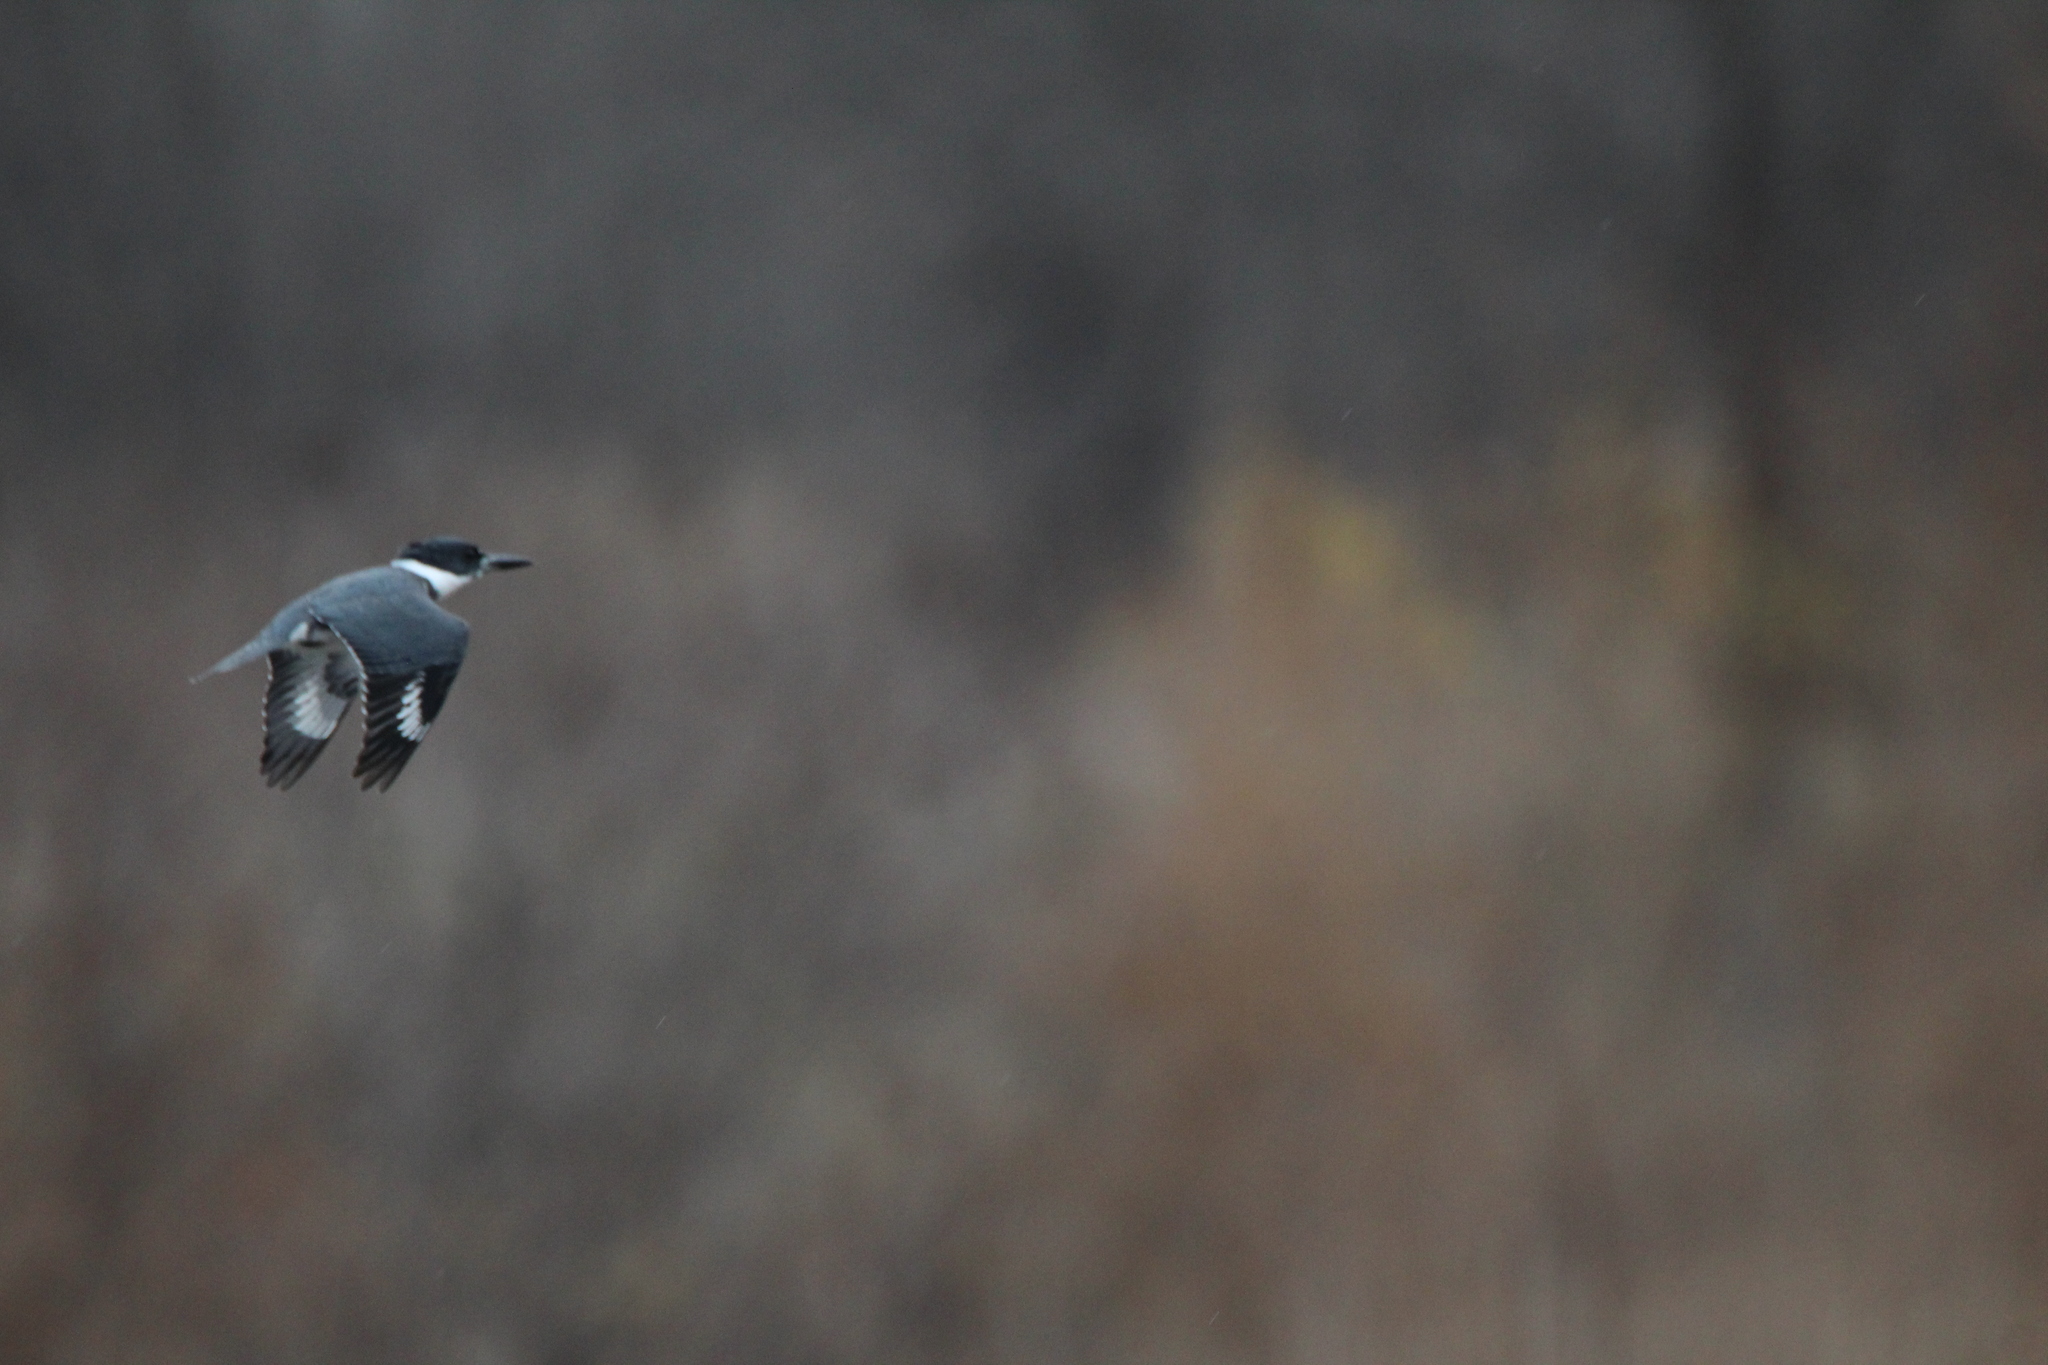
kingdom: Animalia
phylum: Chordata
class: Aves
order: Coraciiformes
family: Alcedinidae
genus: Megaceryle
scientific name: Megaceryle alcyon
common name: Belted kingfisher
